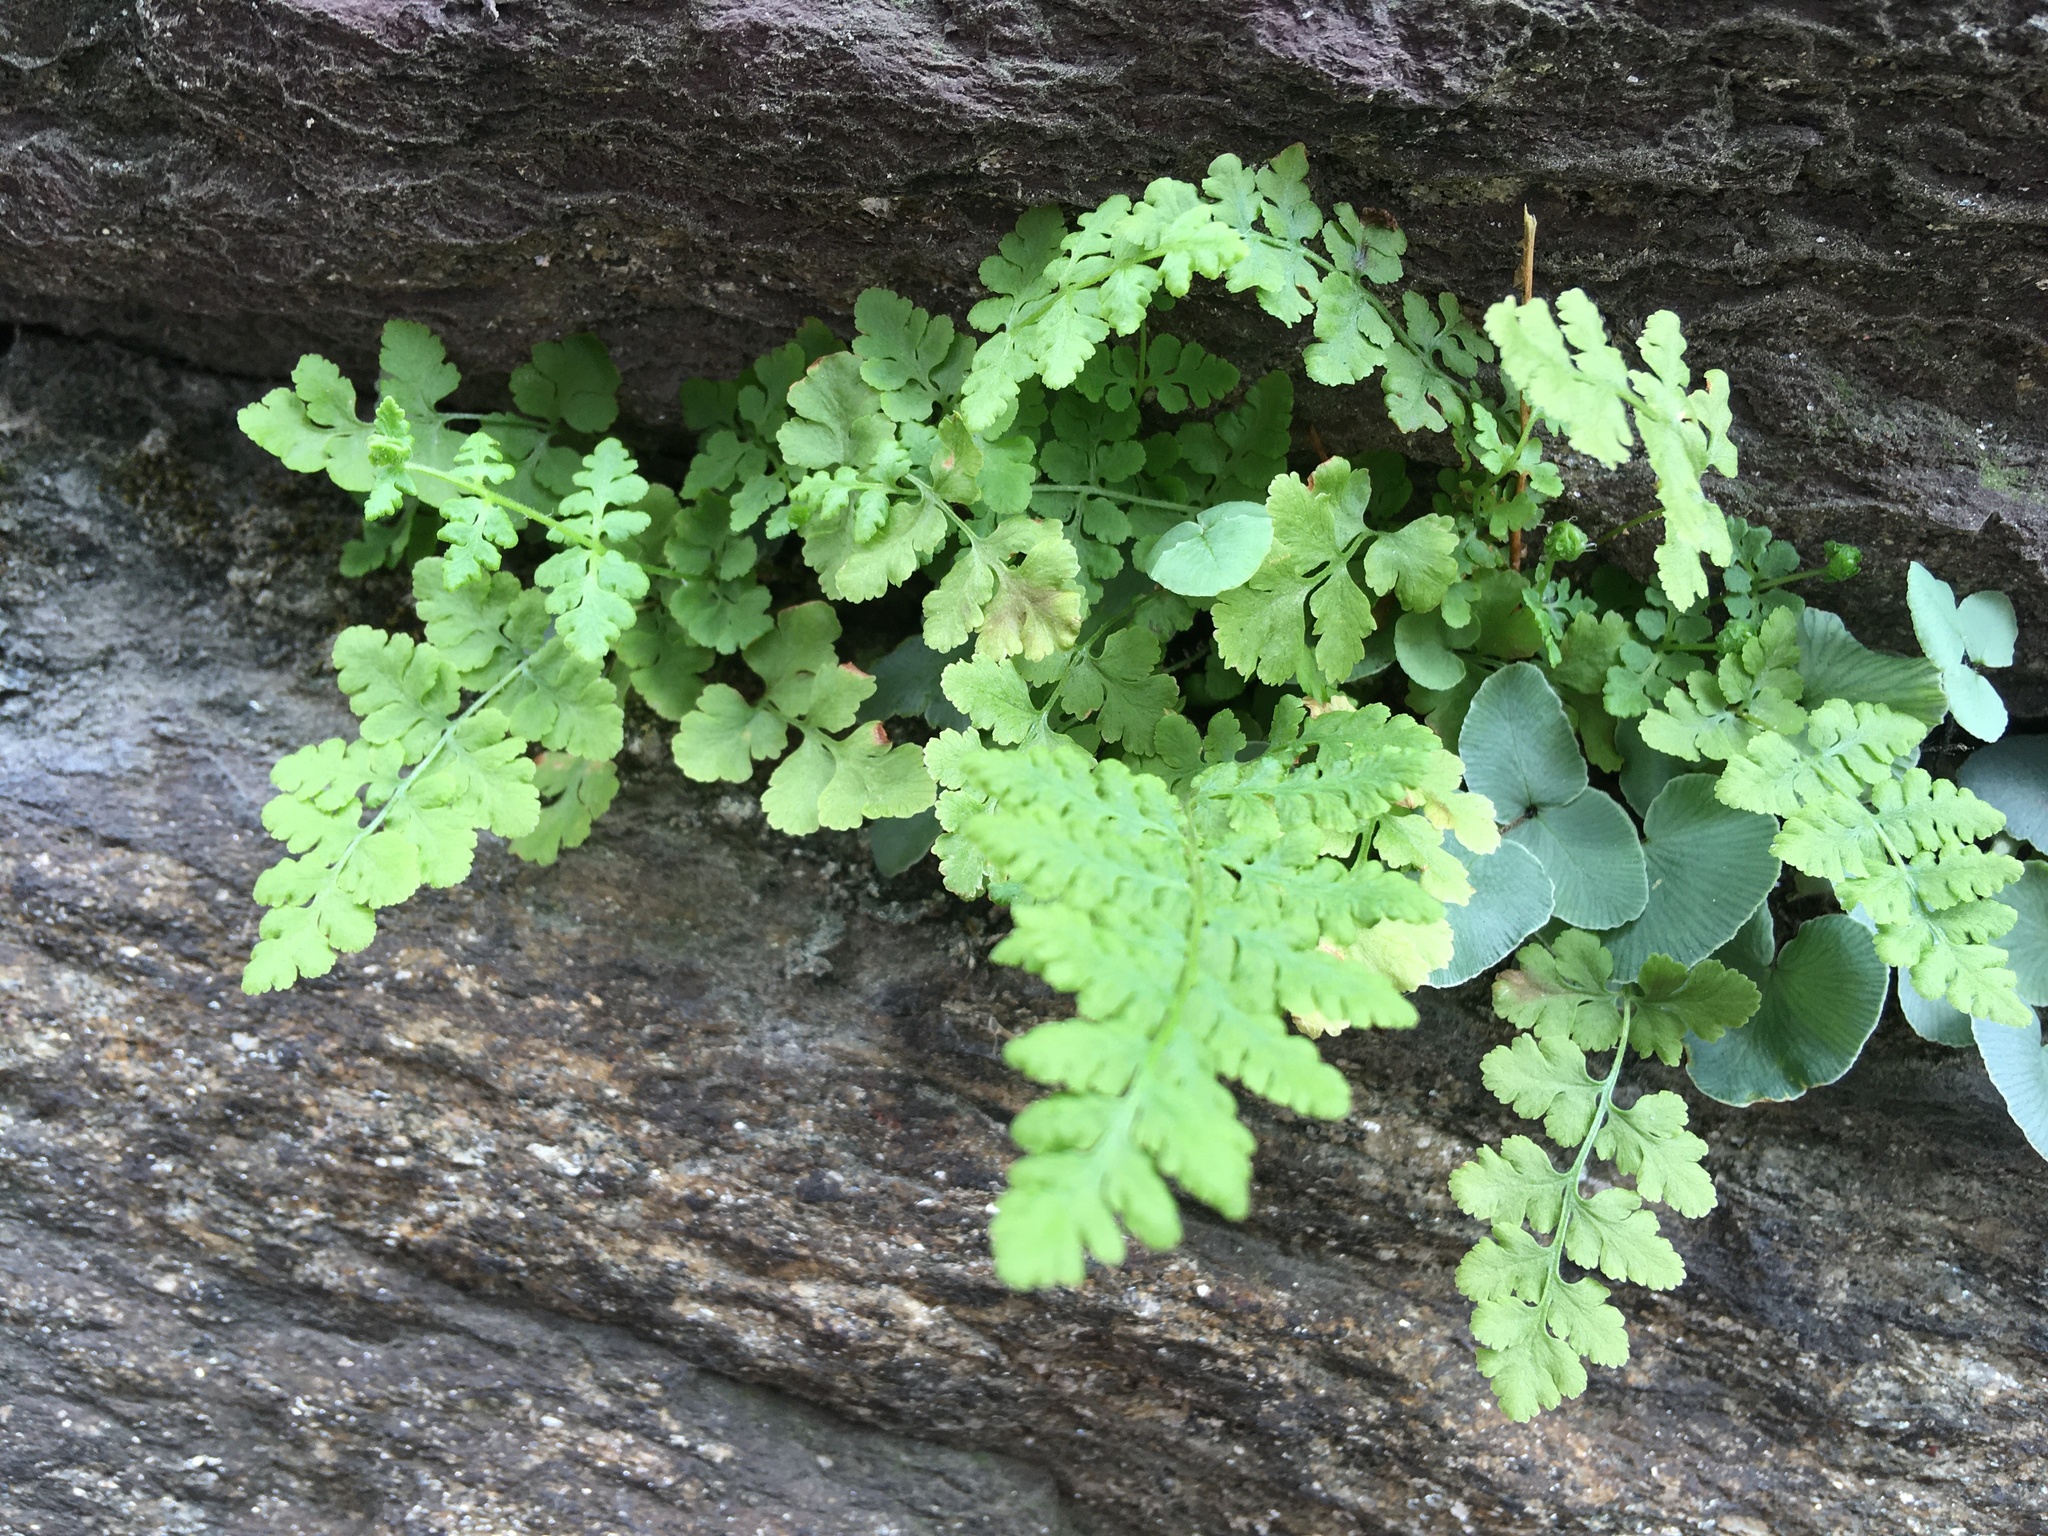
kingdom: Plantae
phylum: Tracheophyta
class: Polypodiopsida
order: Polypodiales
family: Woodsiaceae
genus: Physematium
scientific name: Physematium obtusum
